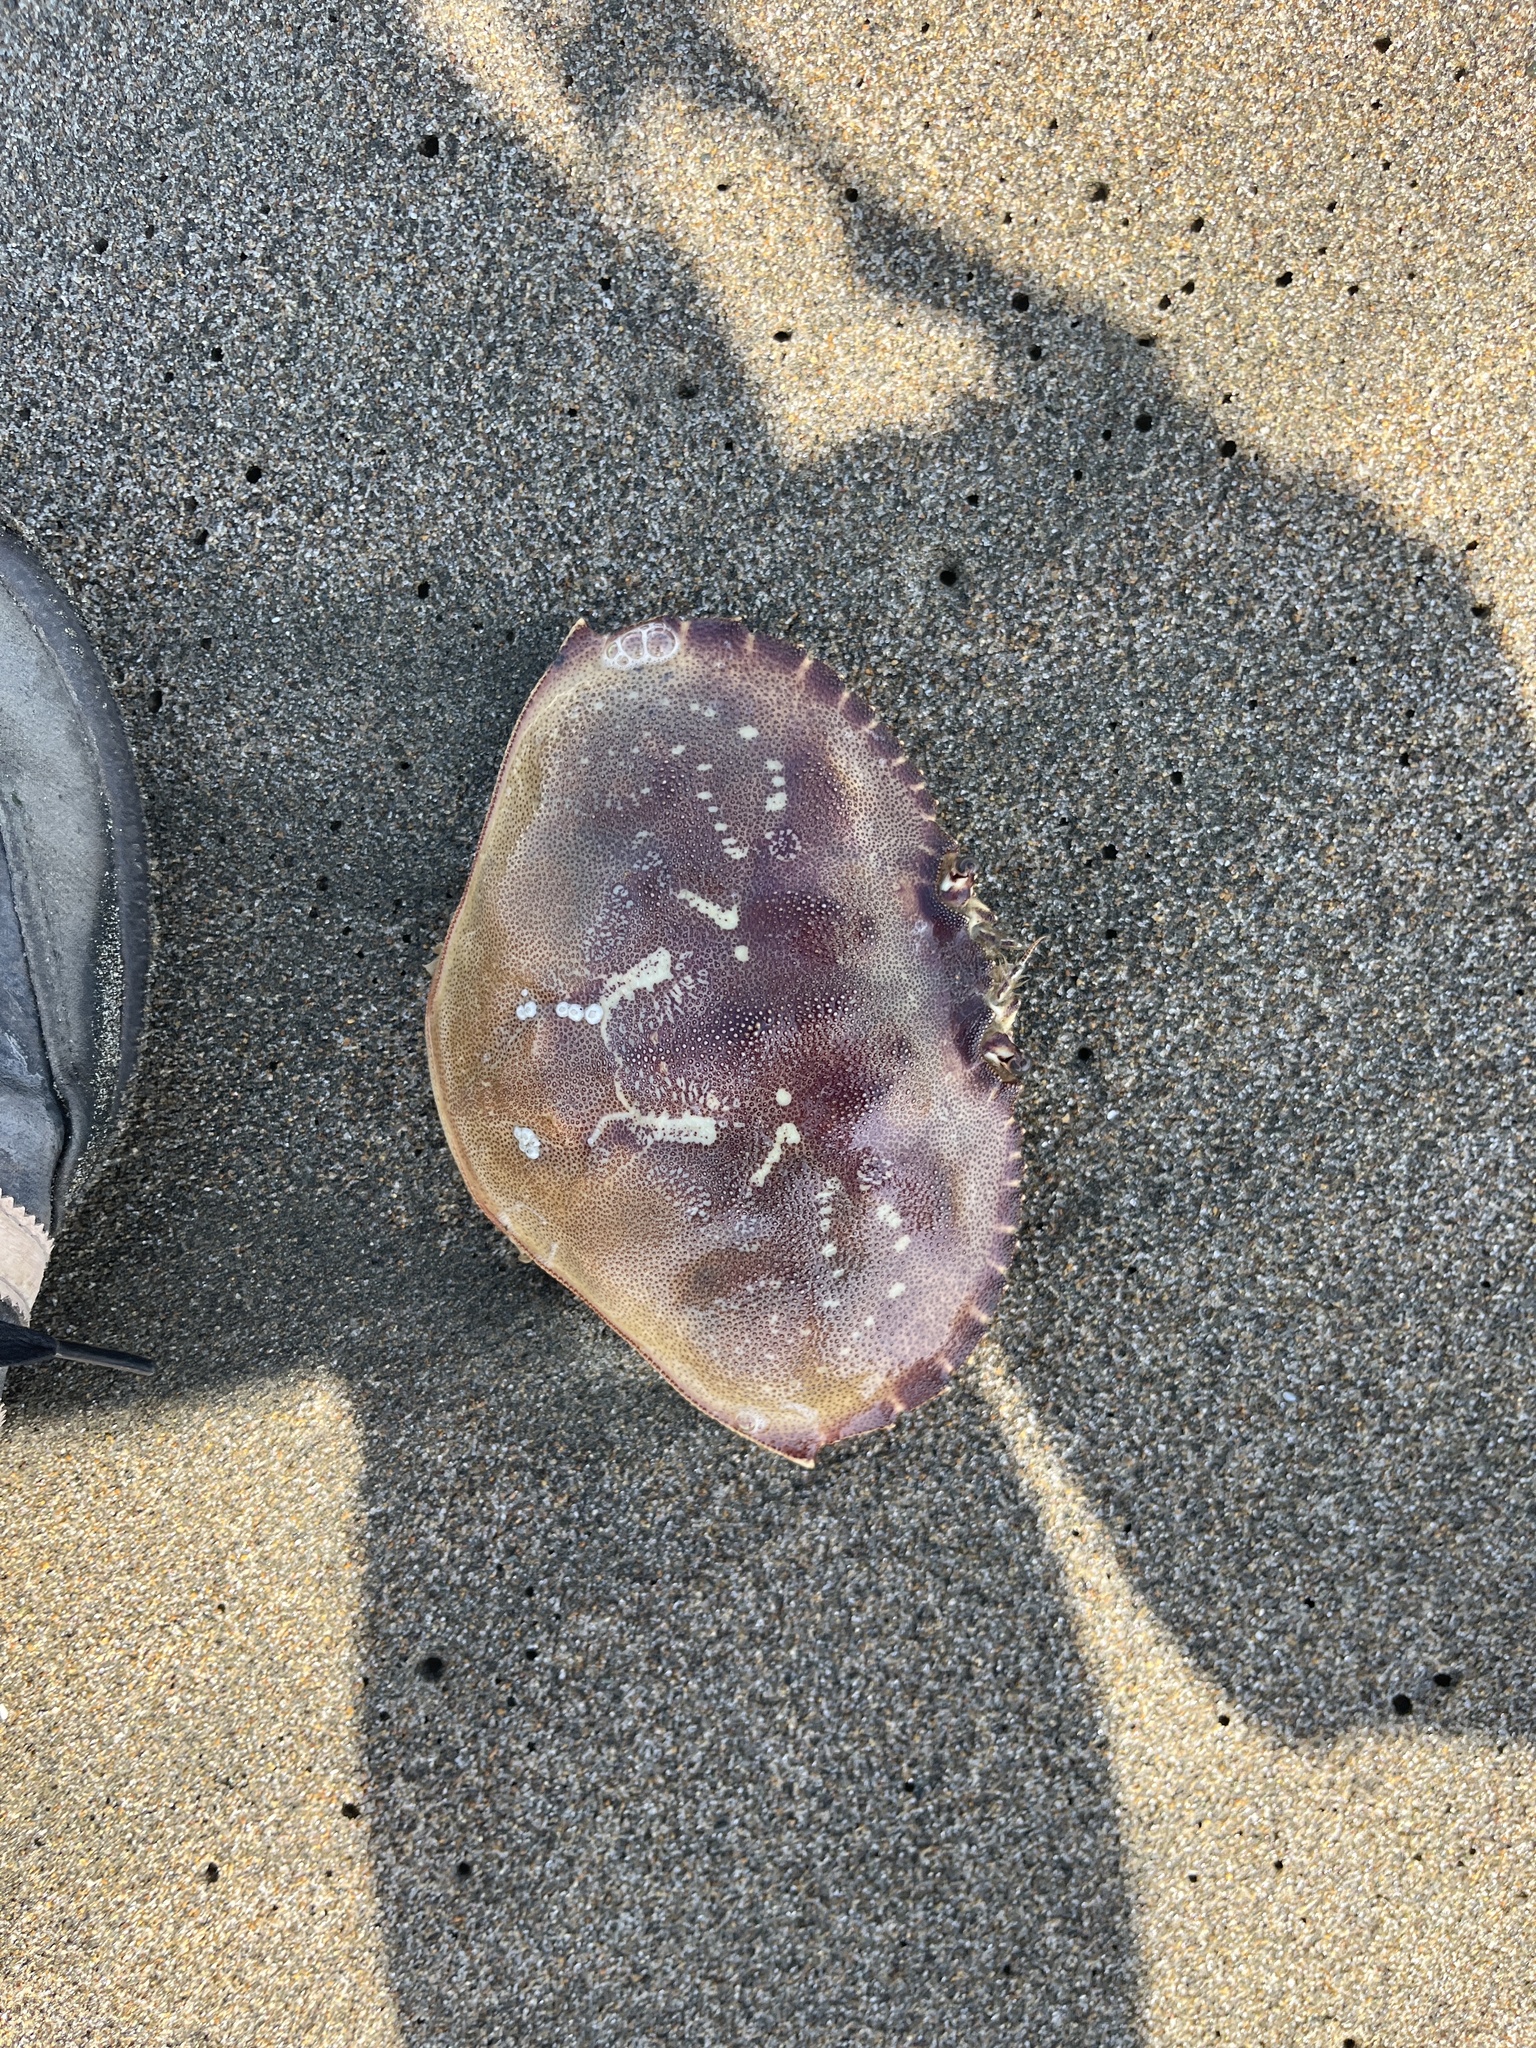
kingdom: Animalia
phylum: Arthropoda
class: Malacostraca
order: Decapoda
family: Cancridae
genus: Metacarcinus
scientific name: Metacarcinus magister
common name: Californian crab
